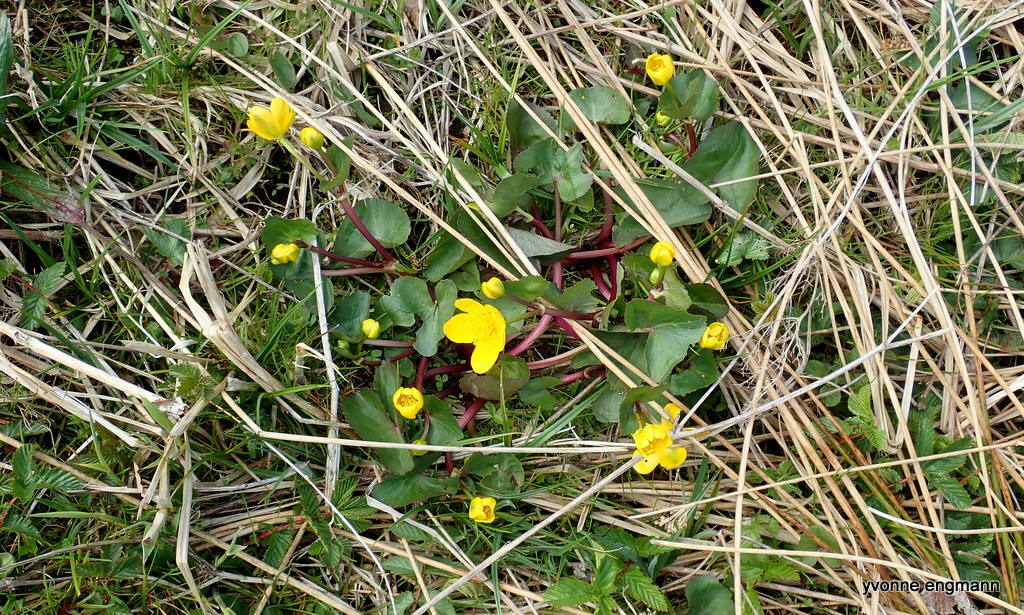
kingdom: Plantae
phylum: Tracheophyta
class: Magnoliopsida
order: Ranunculales
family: Ranunculaceae
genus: Caltha
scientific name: Caltha palustris
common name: Marsh marigold
